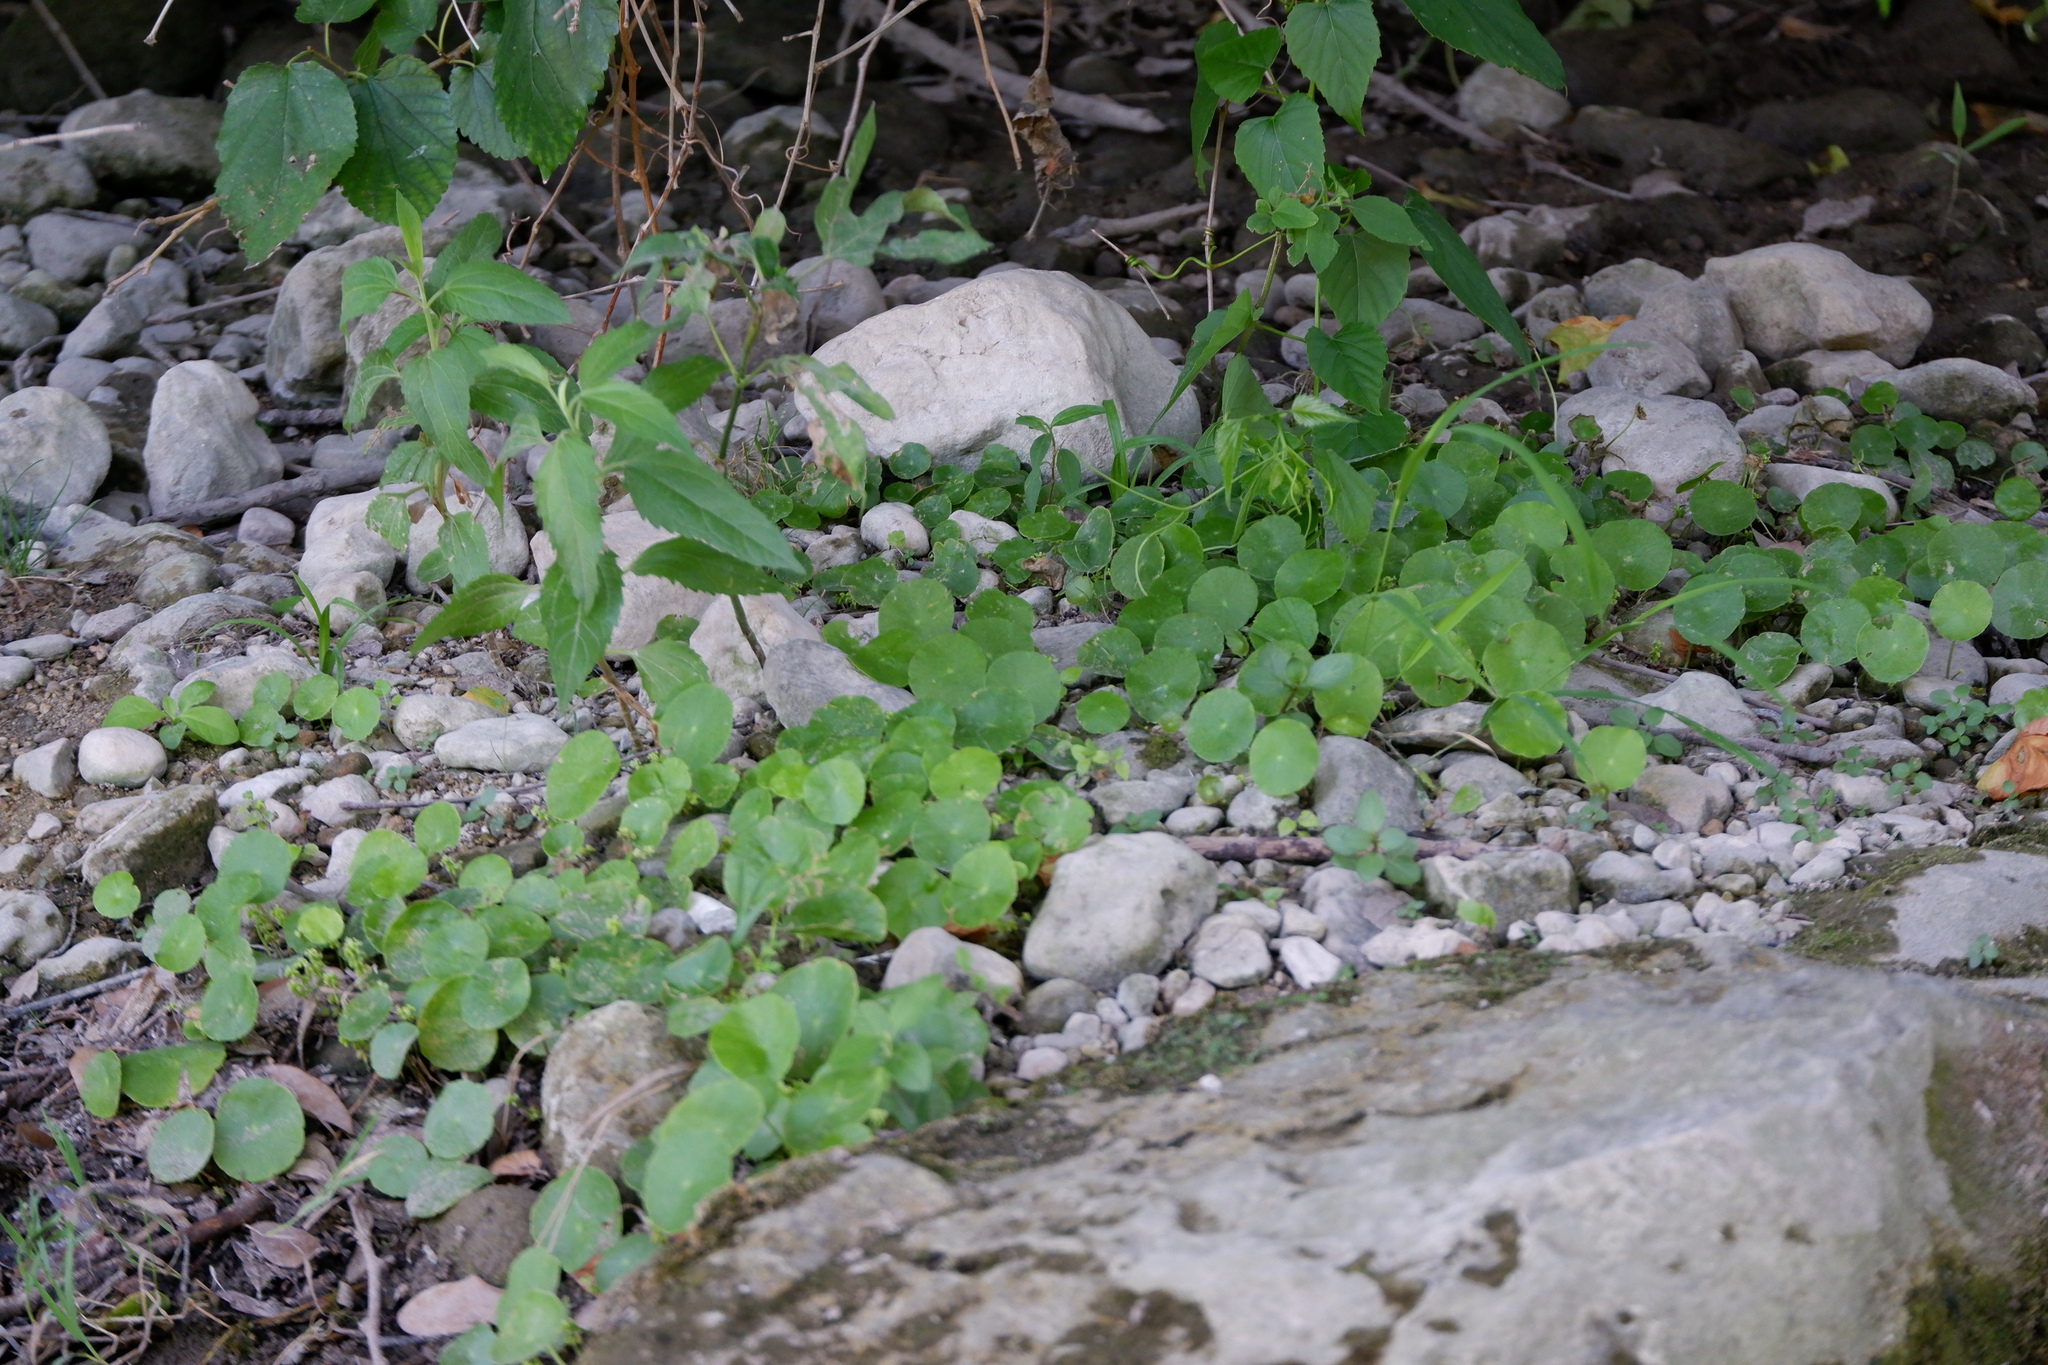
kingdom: Plantae
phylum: Tracheophyta
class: Magnoliopsida
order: Apiales
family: Araliaceae
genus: Hydrocotyle
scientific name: Hydrocotyle verticillata
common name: Whorled marshpennywort
